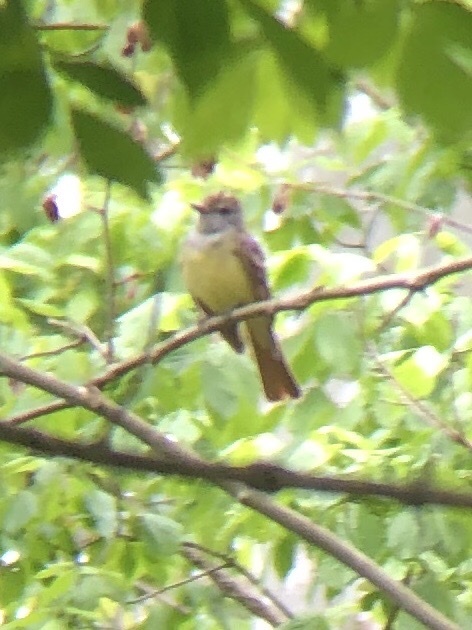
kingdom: Animalia
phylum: Chordata
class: Aves
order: Passeriformes
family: Tyrannidae
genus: Myiarchus
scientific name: Myiarchus crinitus
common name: Great crested flycatcher
